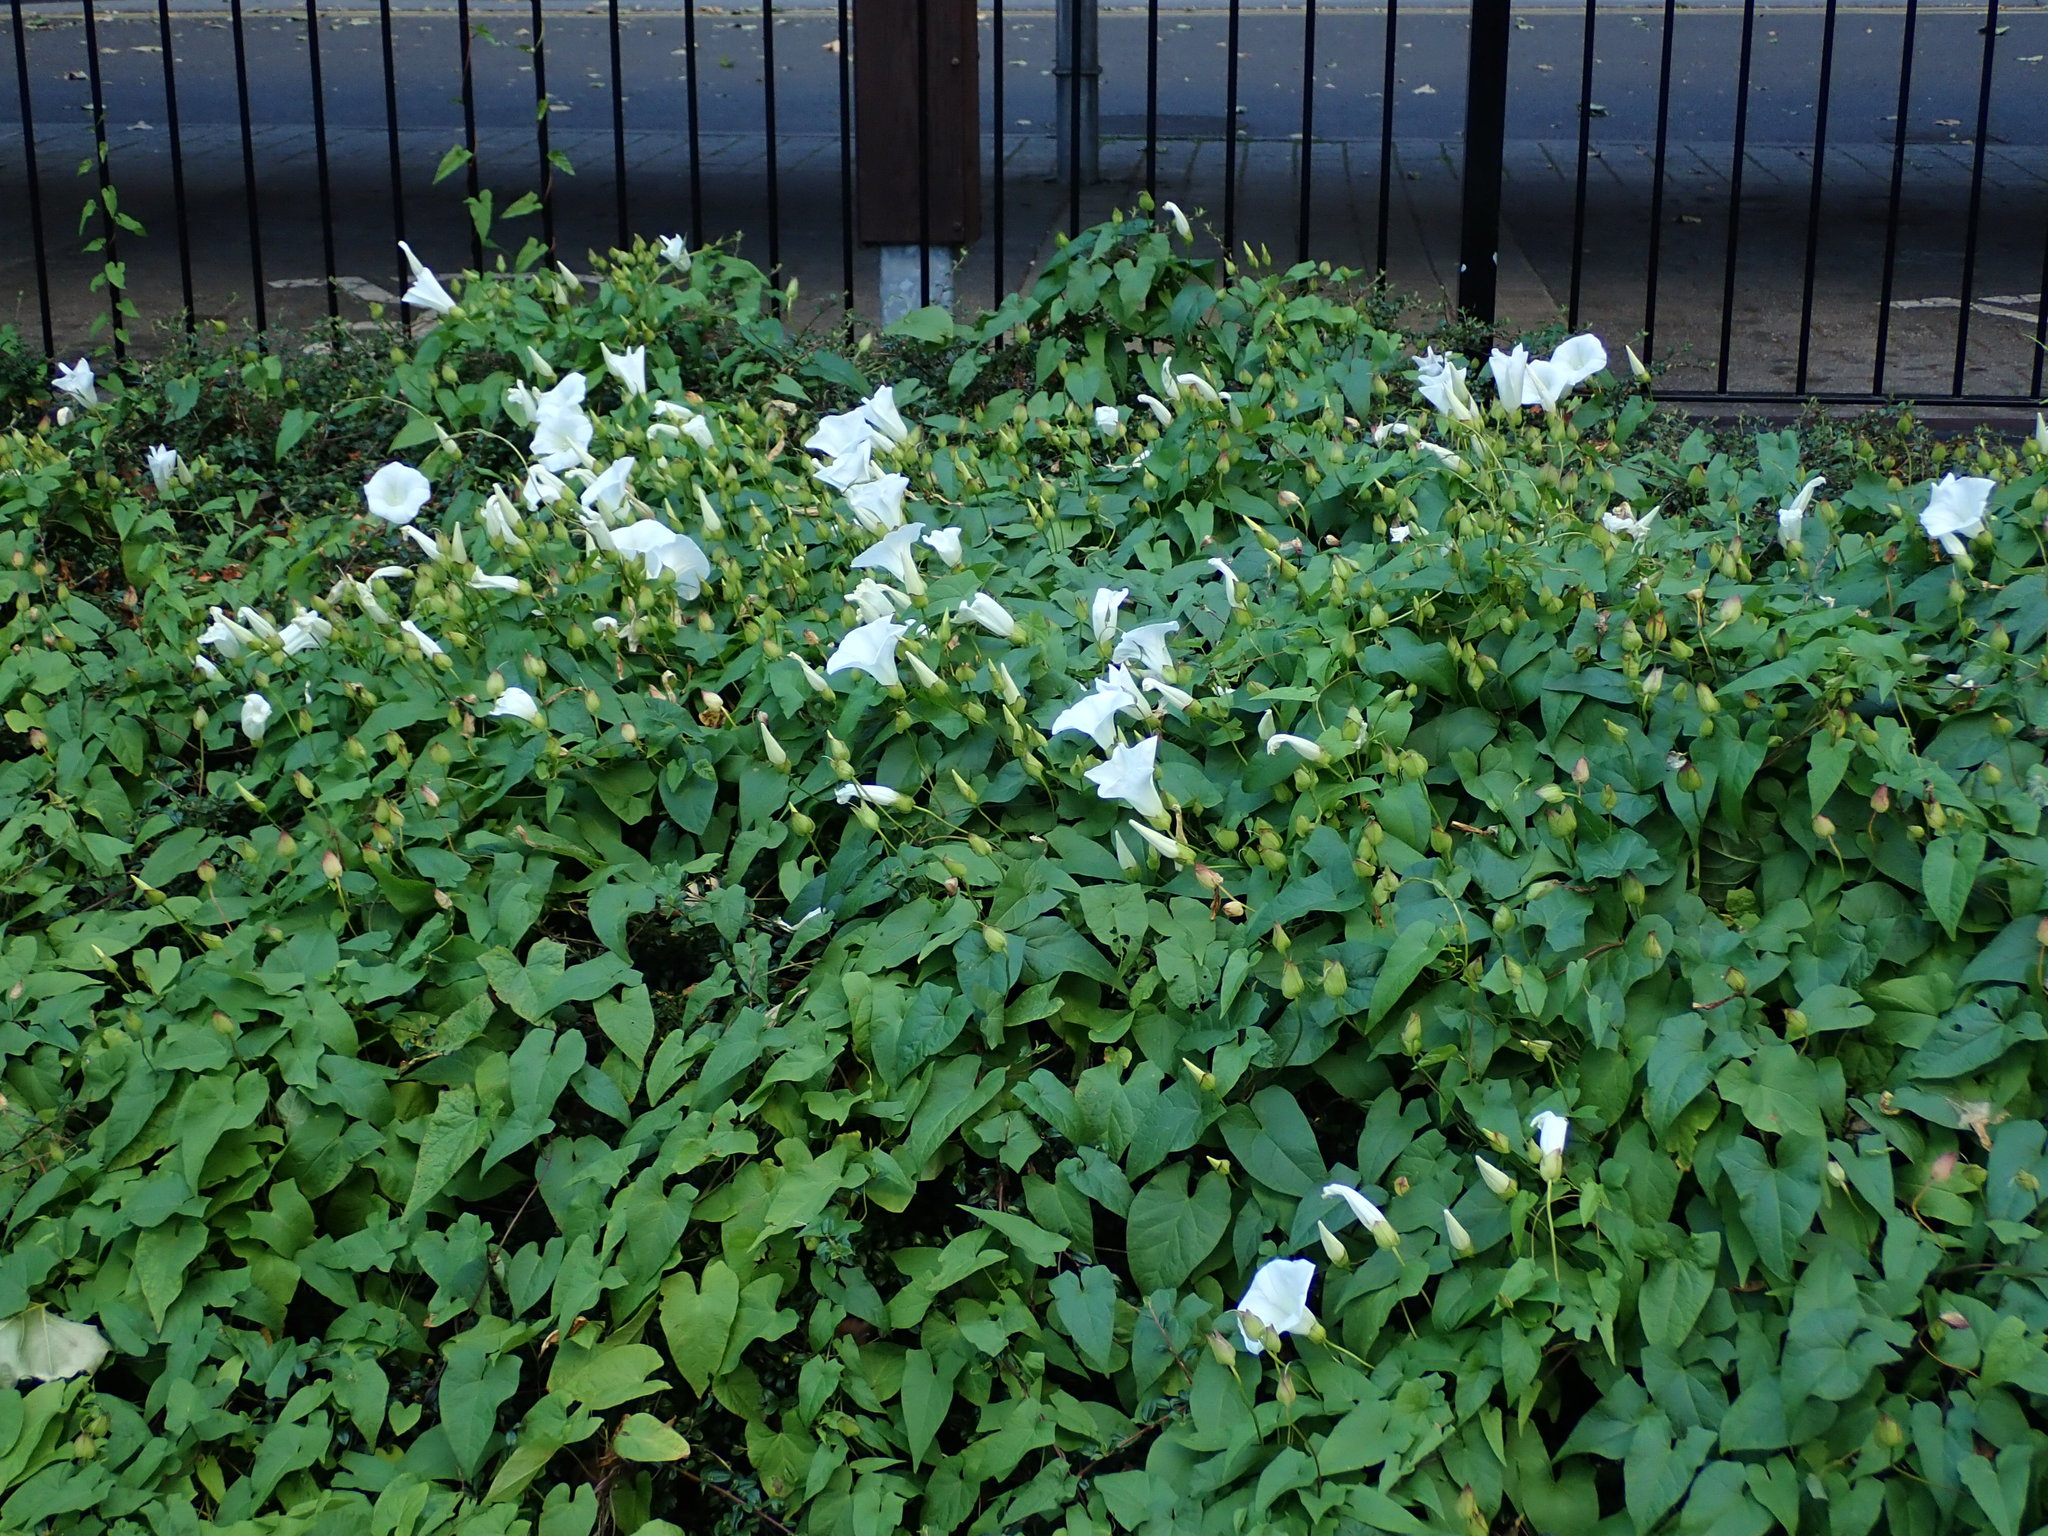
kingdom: Plantae
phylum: Tracheophyta
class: Magnoliopsida
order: Solanales
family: Convolvulaceae
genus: Calystegia
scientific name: Calystegia silvatica
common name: Large bindweed
